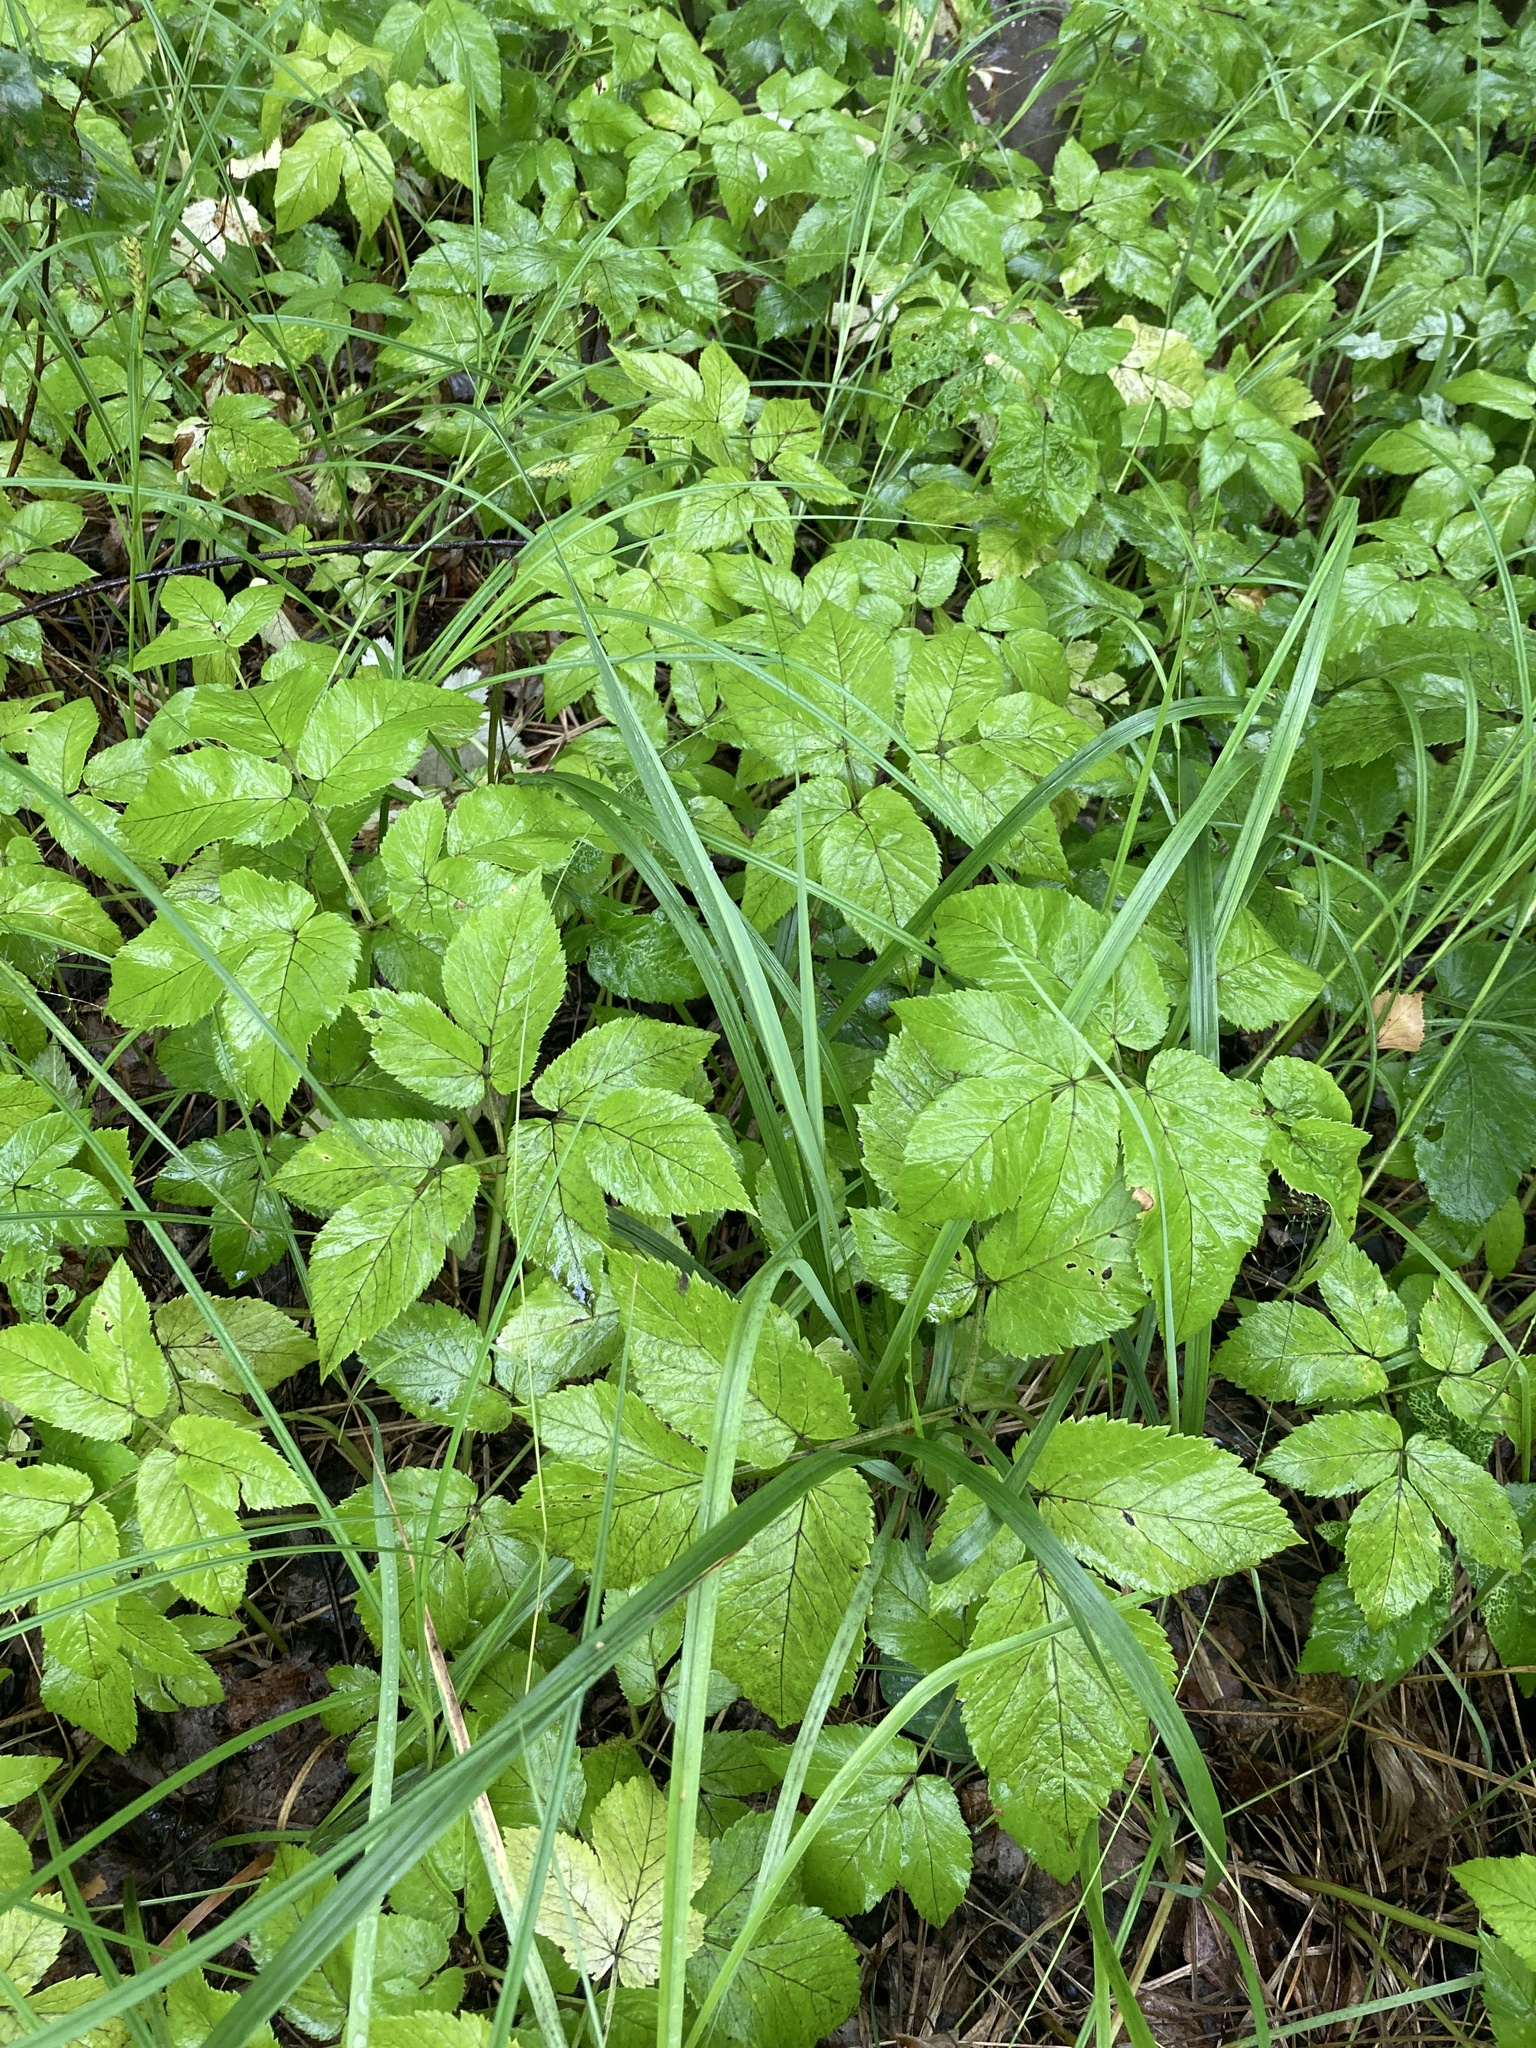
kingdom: Plantae
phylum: Tracheophyta
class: Magnoliopsida
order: Apiales
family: Apiaceae
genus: Aegopodium
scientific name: Aegopodium podagraria
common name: Ground-elder
